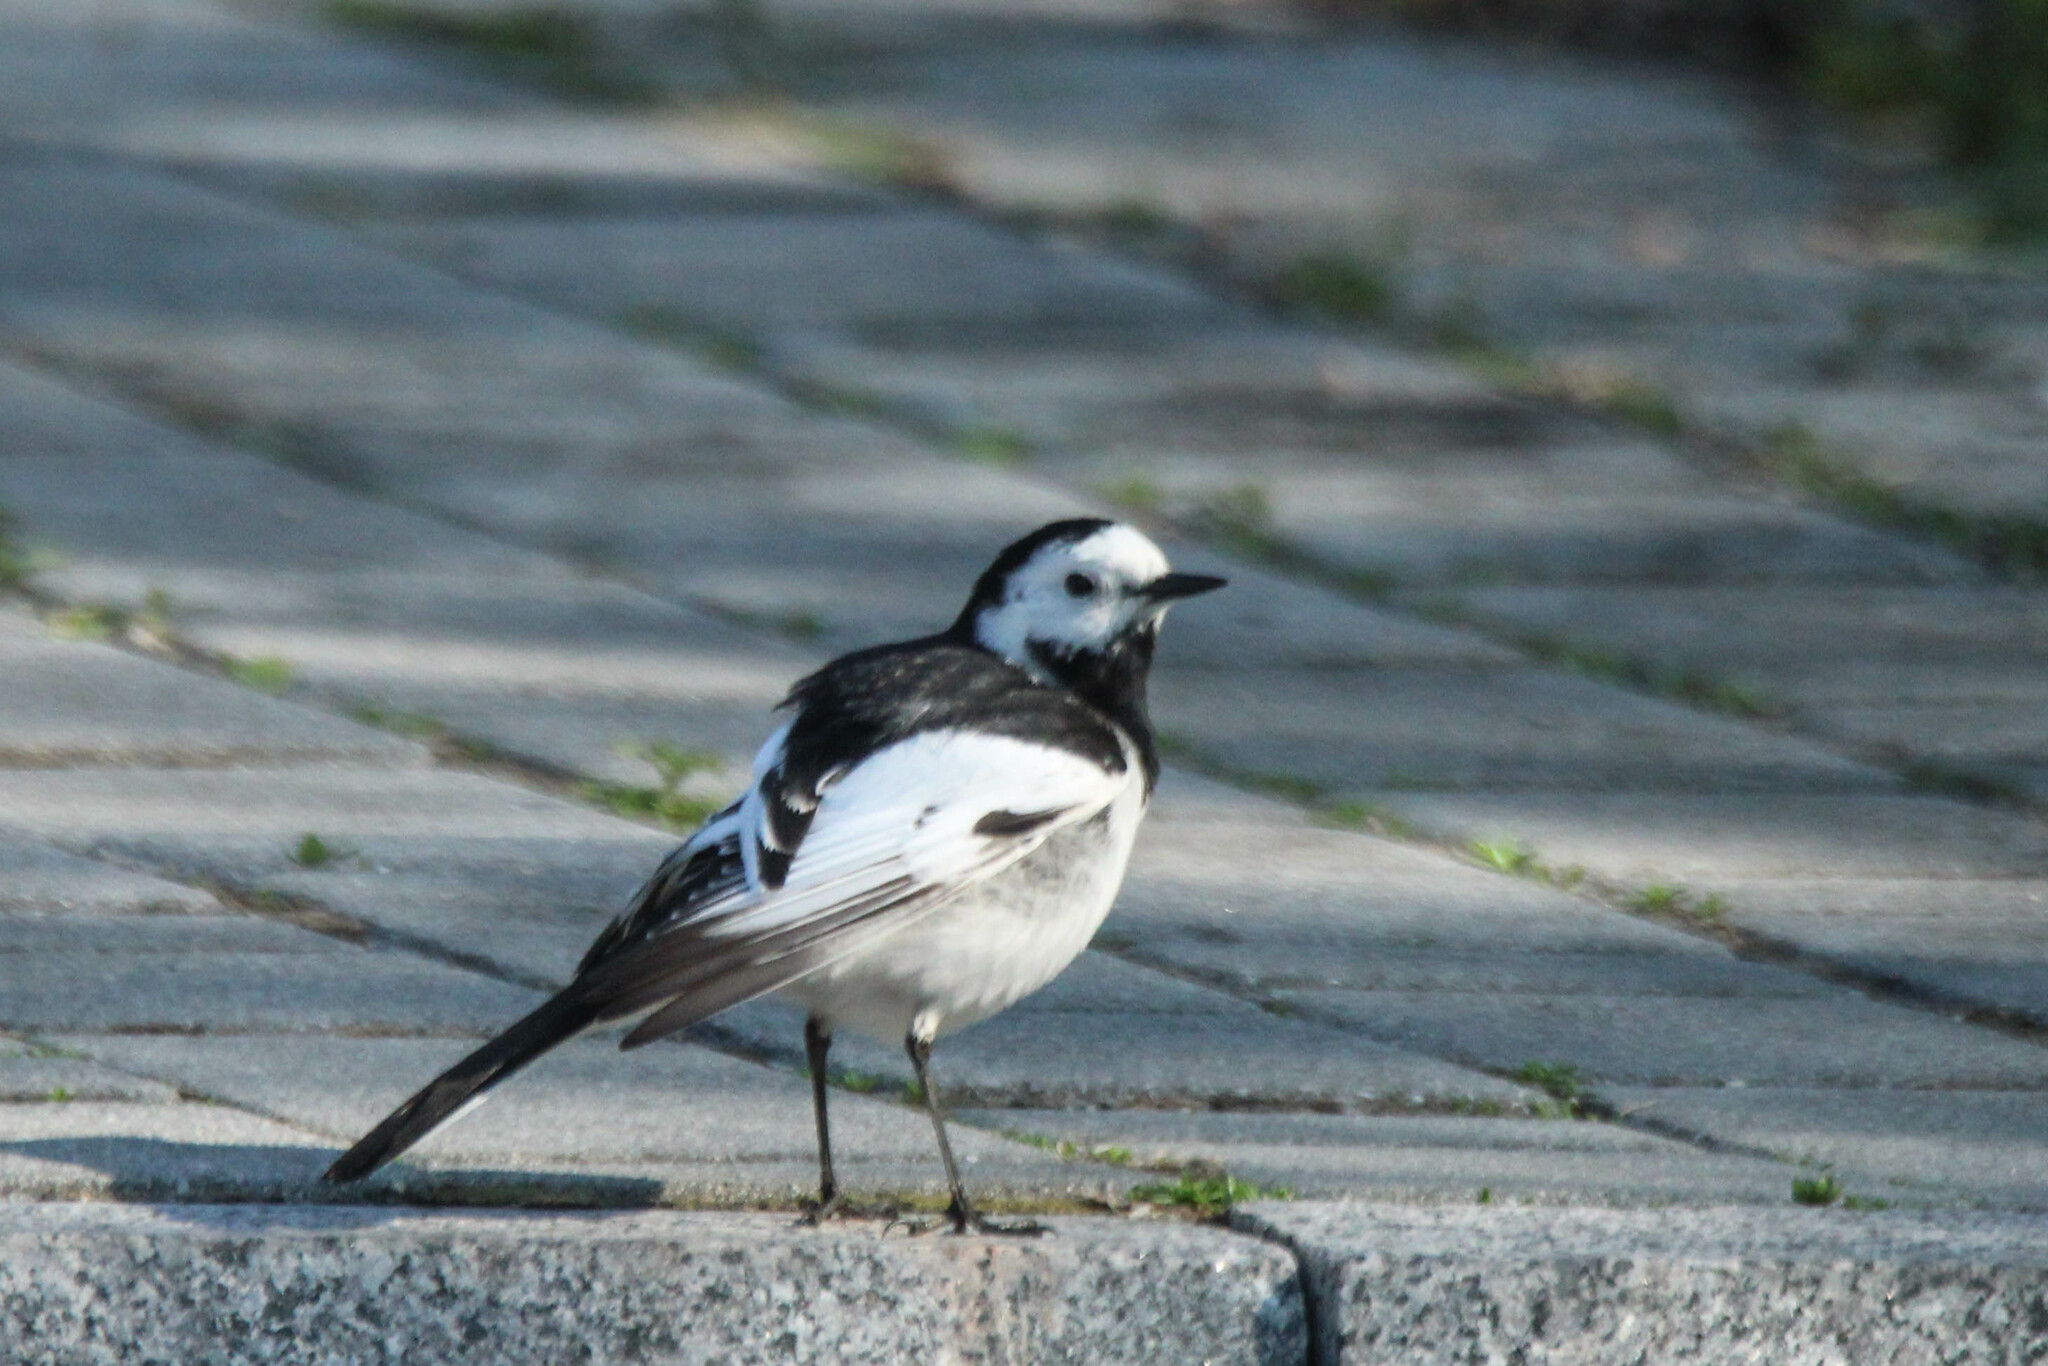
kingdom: Animalia
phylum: Chordata
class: Aves
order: Passeriformes
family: Motacillidae
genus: Motacilla
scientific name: Motacilla alba
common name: White wagtail
